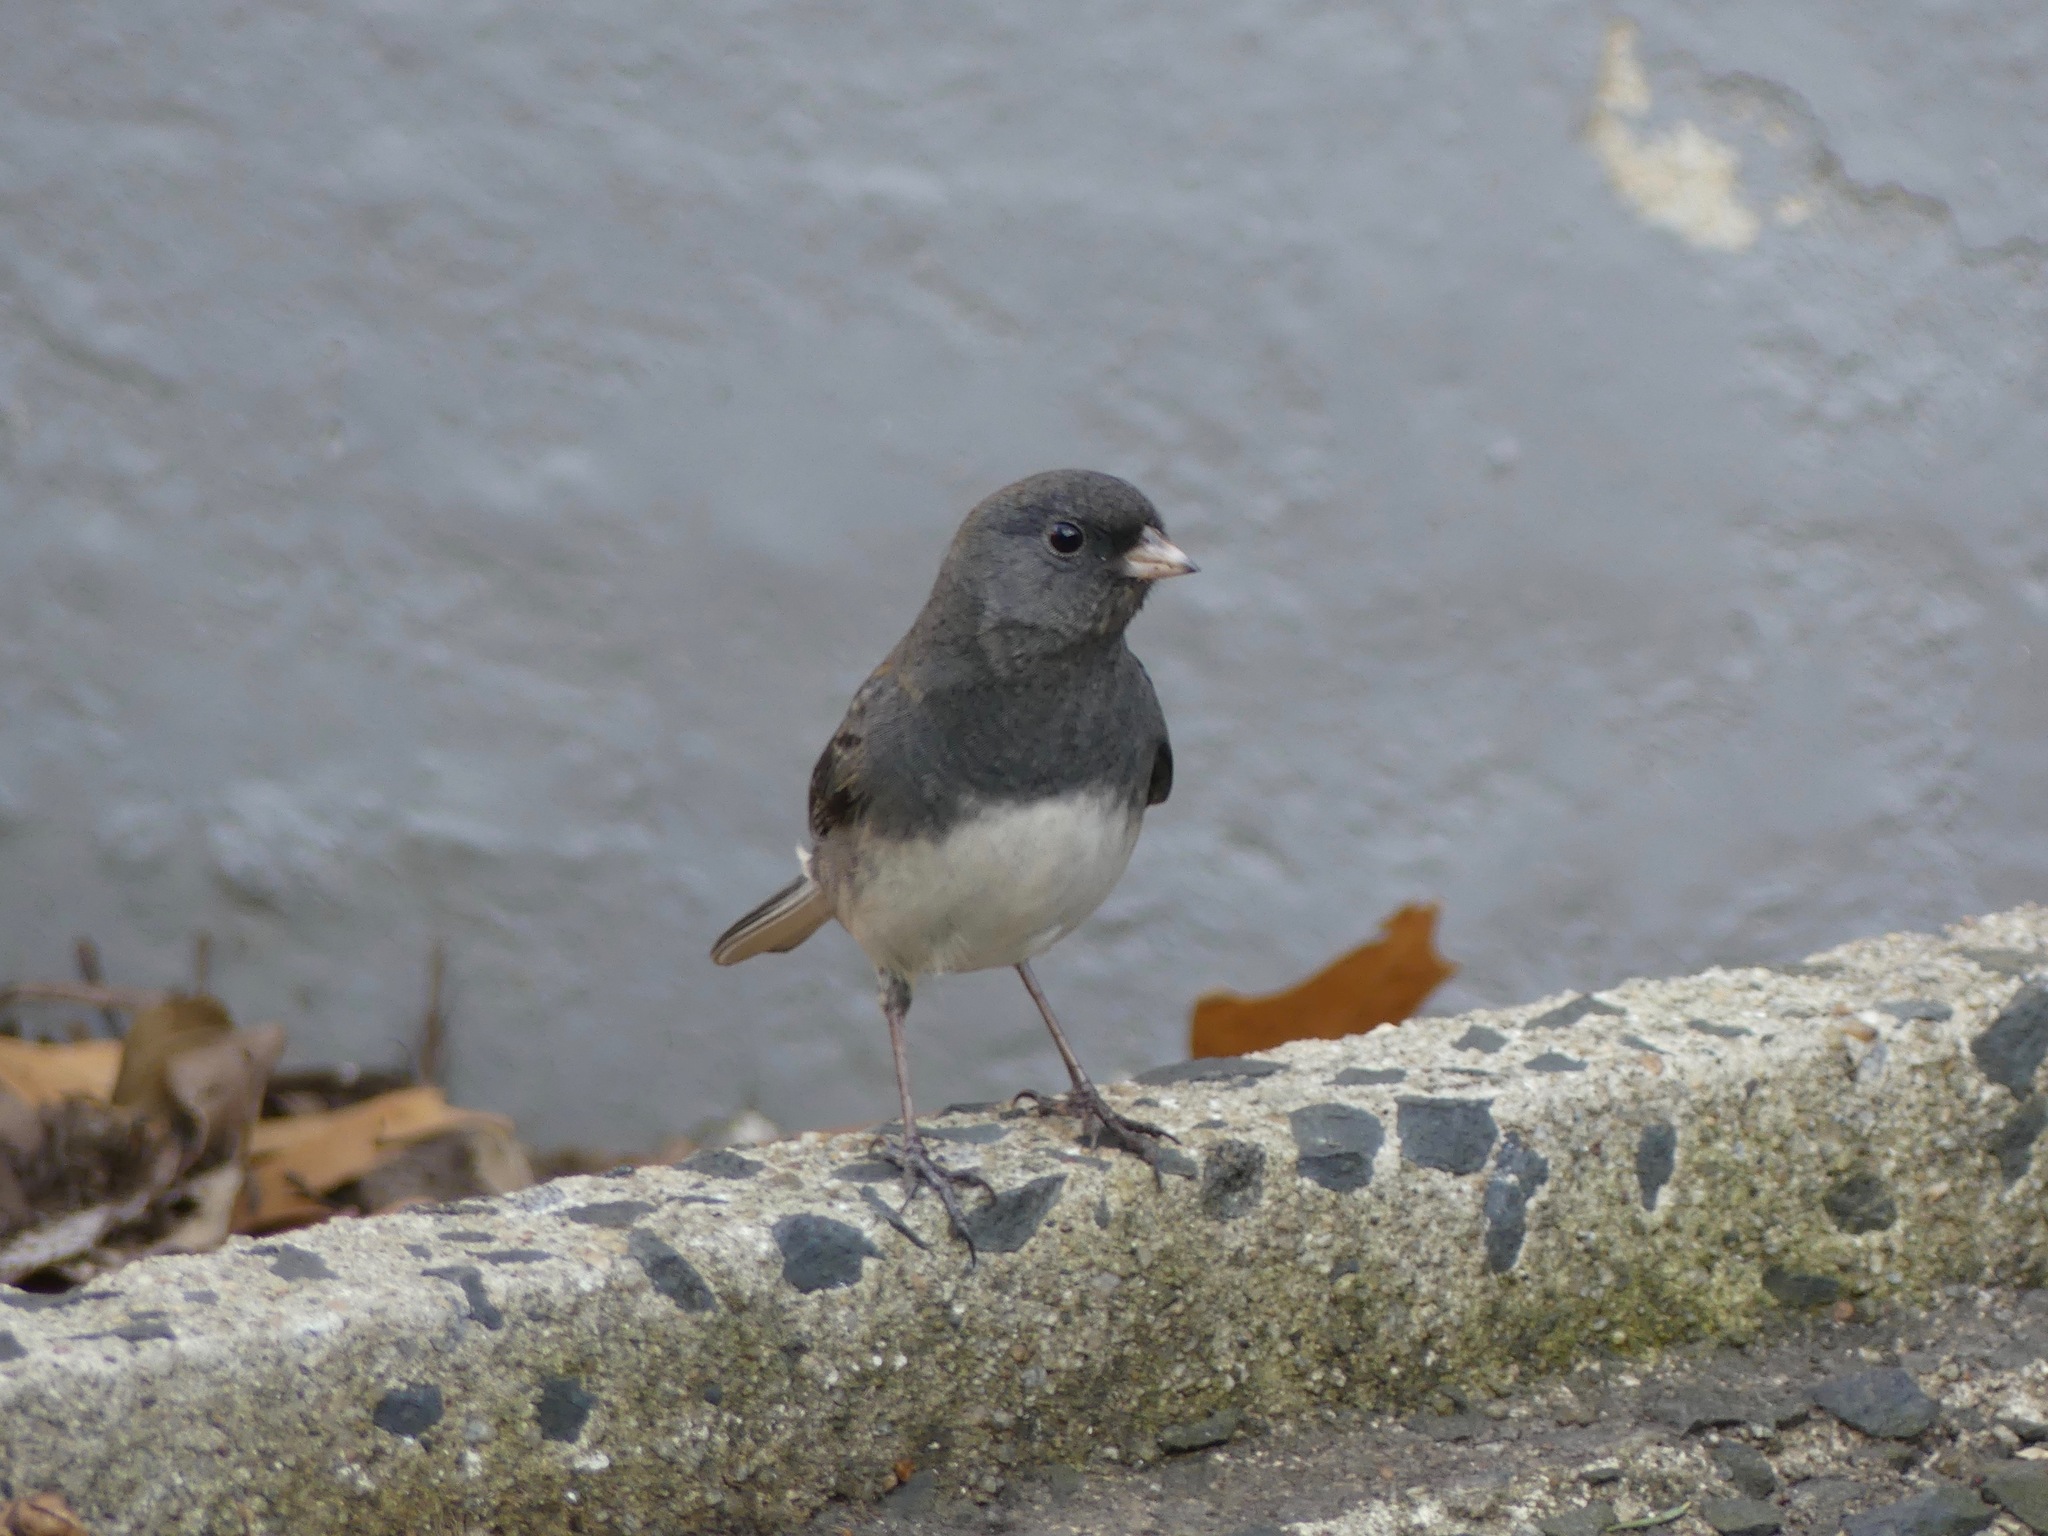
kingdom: Animalia
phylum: Chordata
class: Aves
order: Passeriformes
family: Passerellidae
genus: Junco
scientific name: Junco hyemalis
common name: Dark-eyed junco
